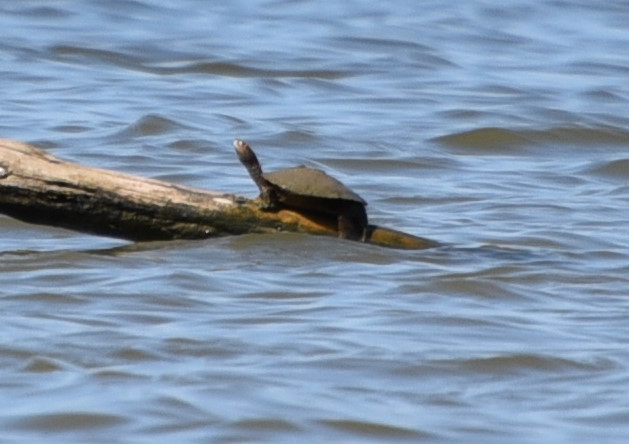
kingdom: Animalia
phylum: Chordata
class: Testudines
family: Emydidae
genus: Graptemys
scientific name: Graptemys pseudogeographica
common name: False map turtle
